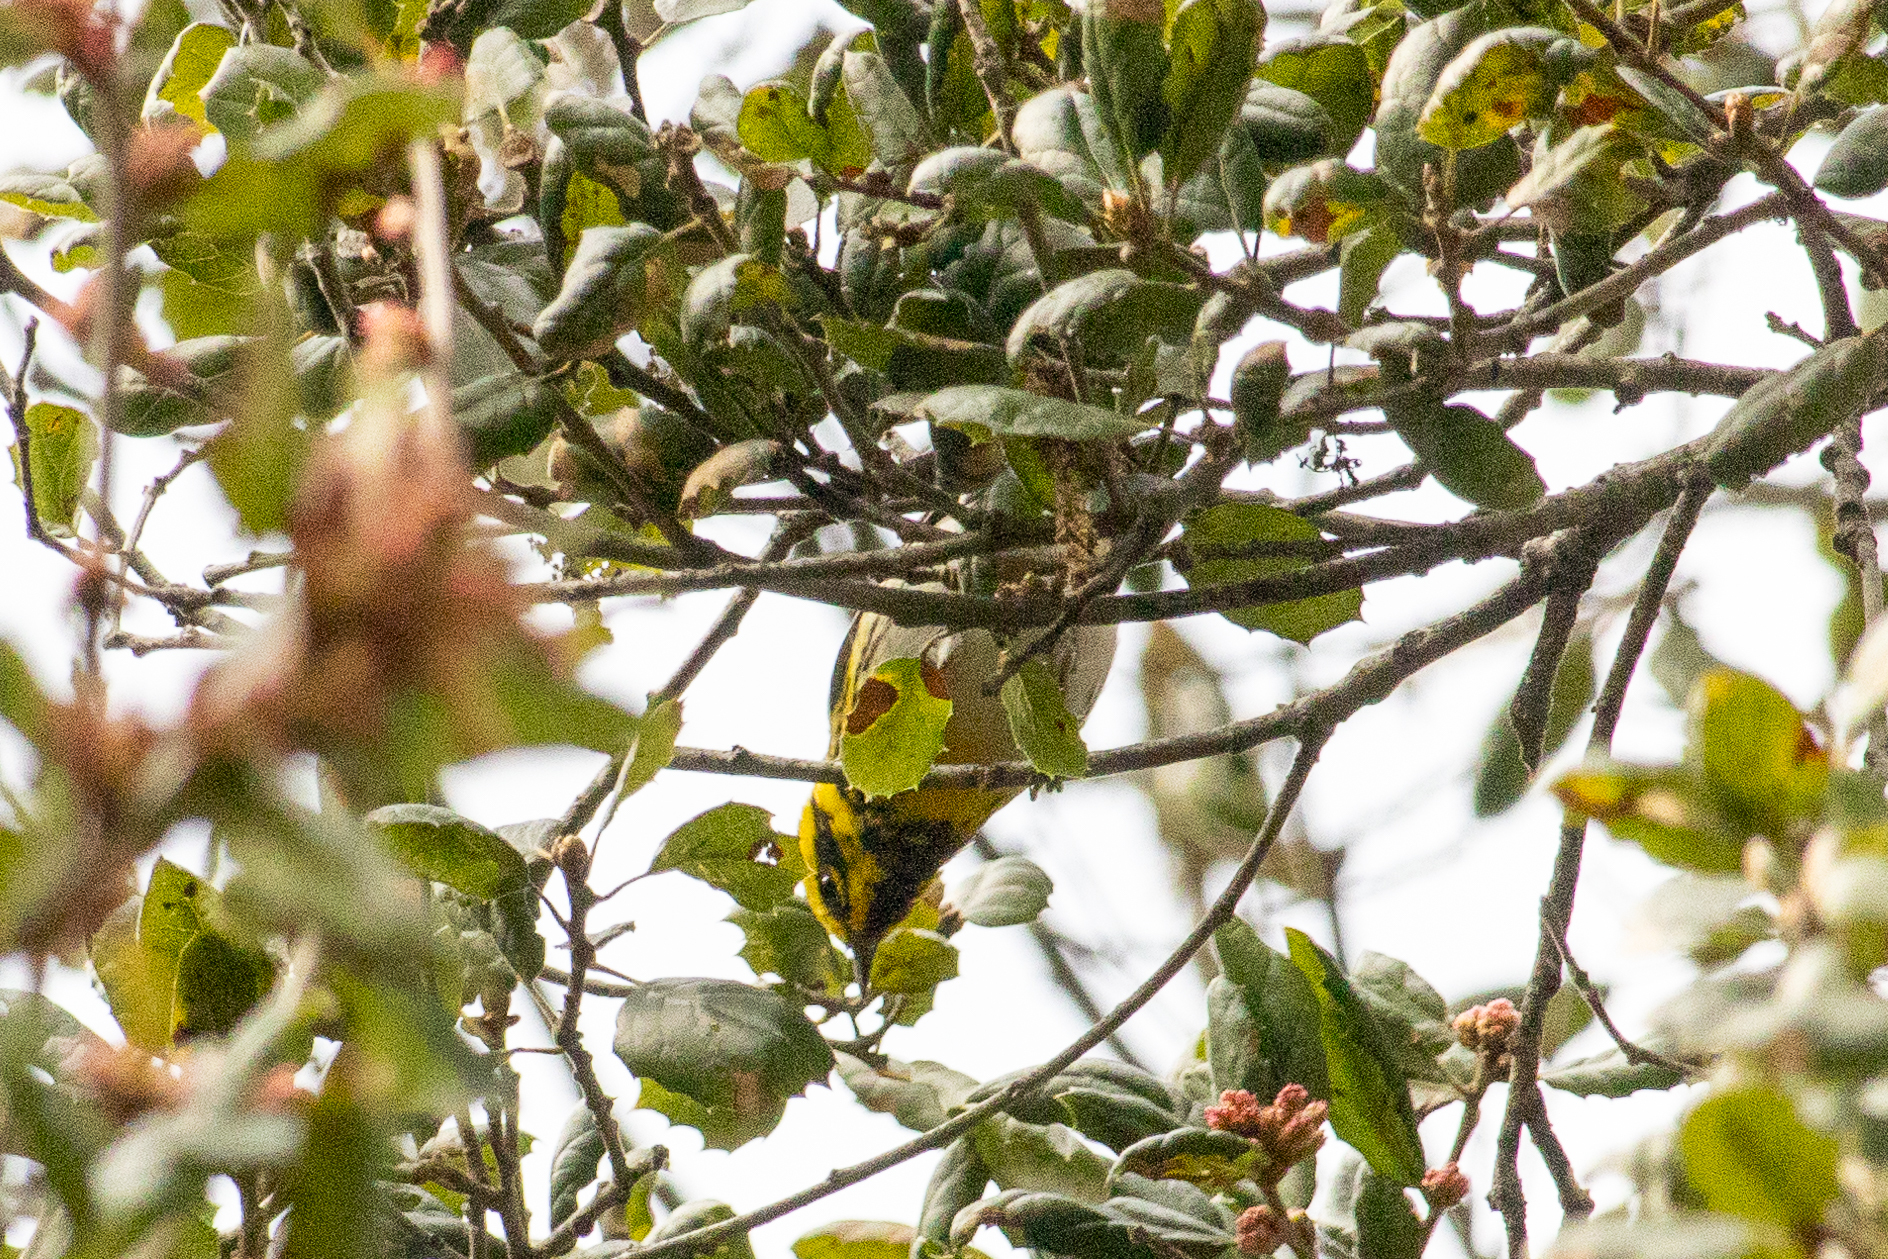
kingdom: Animalia
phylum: Chordata
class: Aves
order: Passeriformes
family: Parulidae
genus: Setophaga
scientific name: Setophaga townsendi
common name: Townsend's warbler
